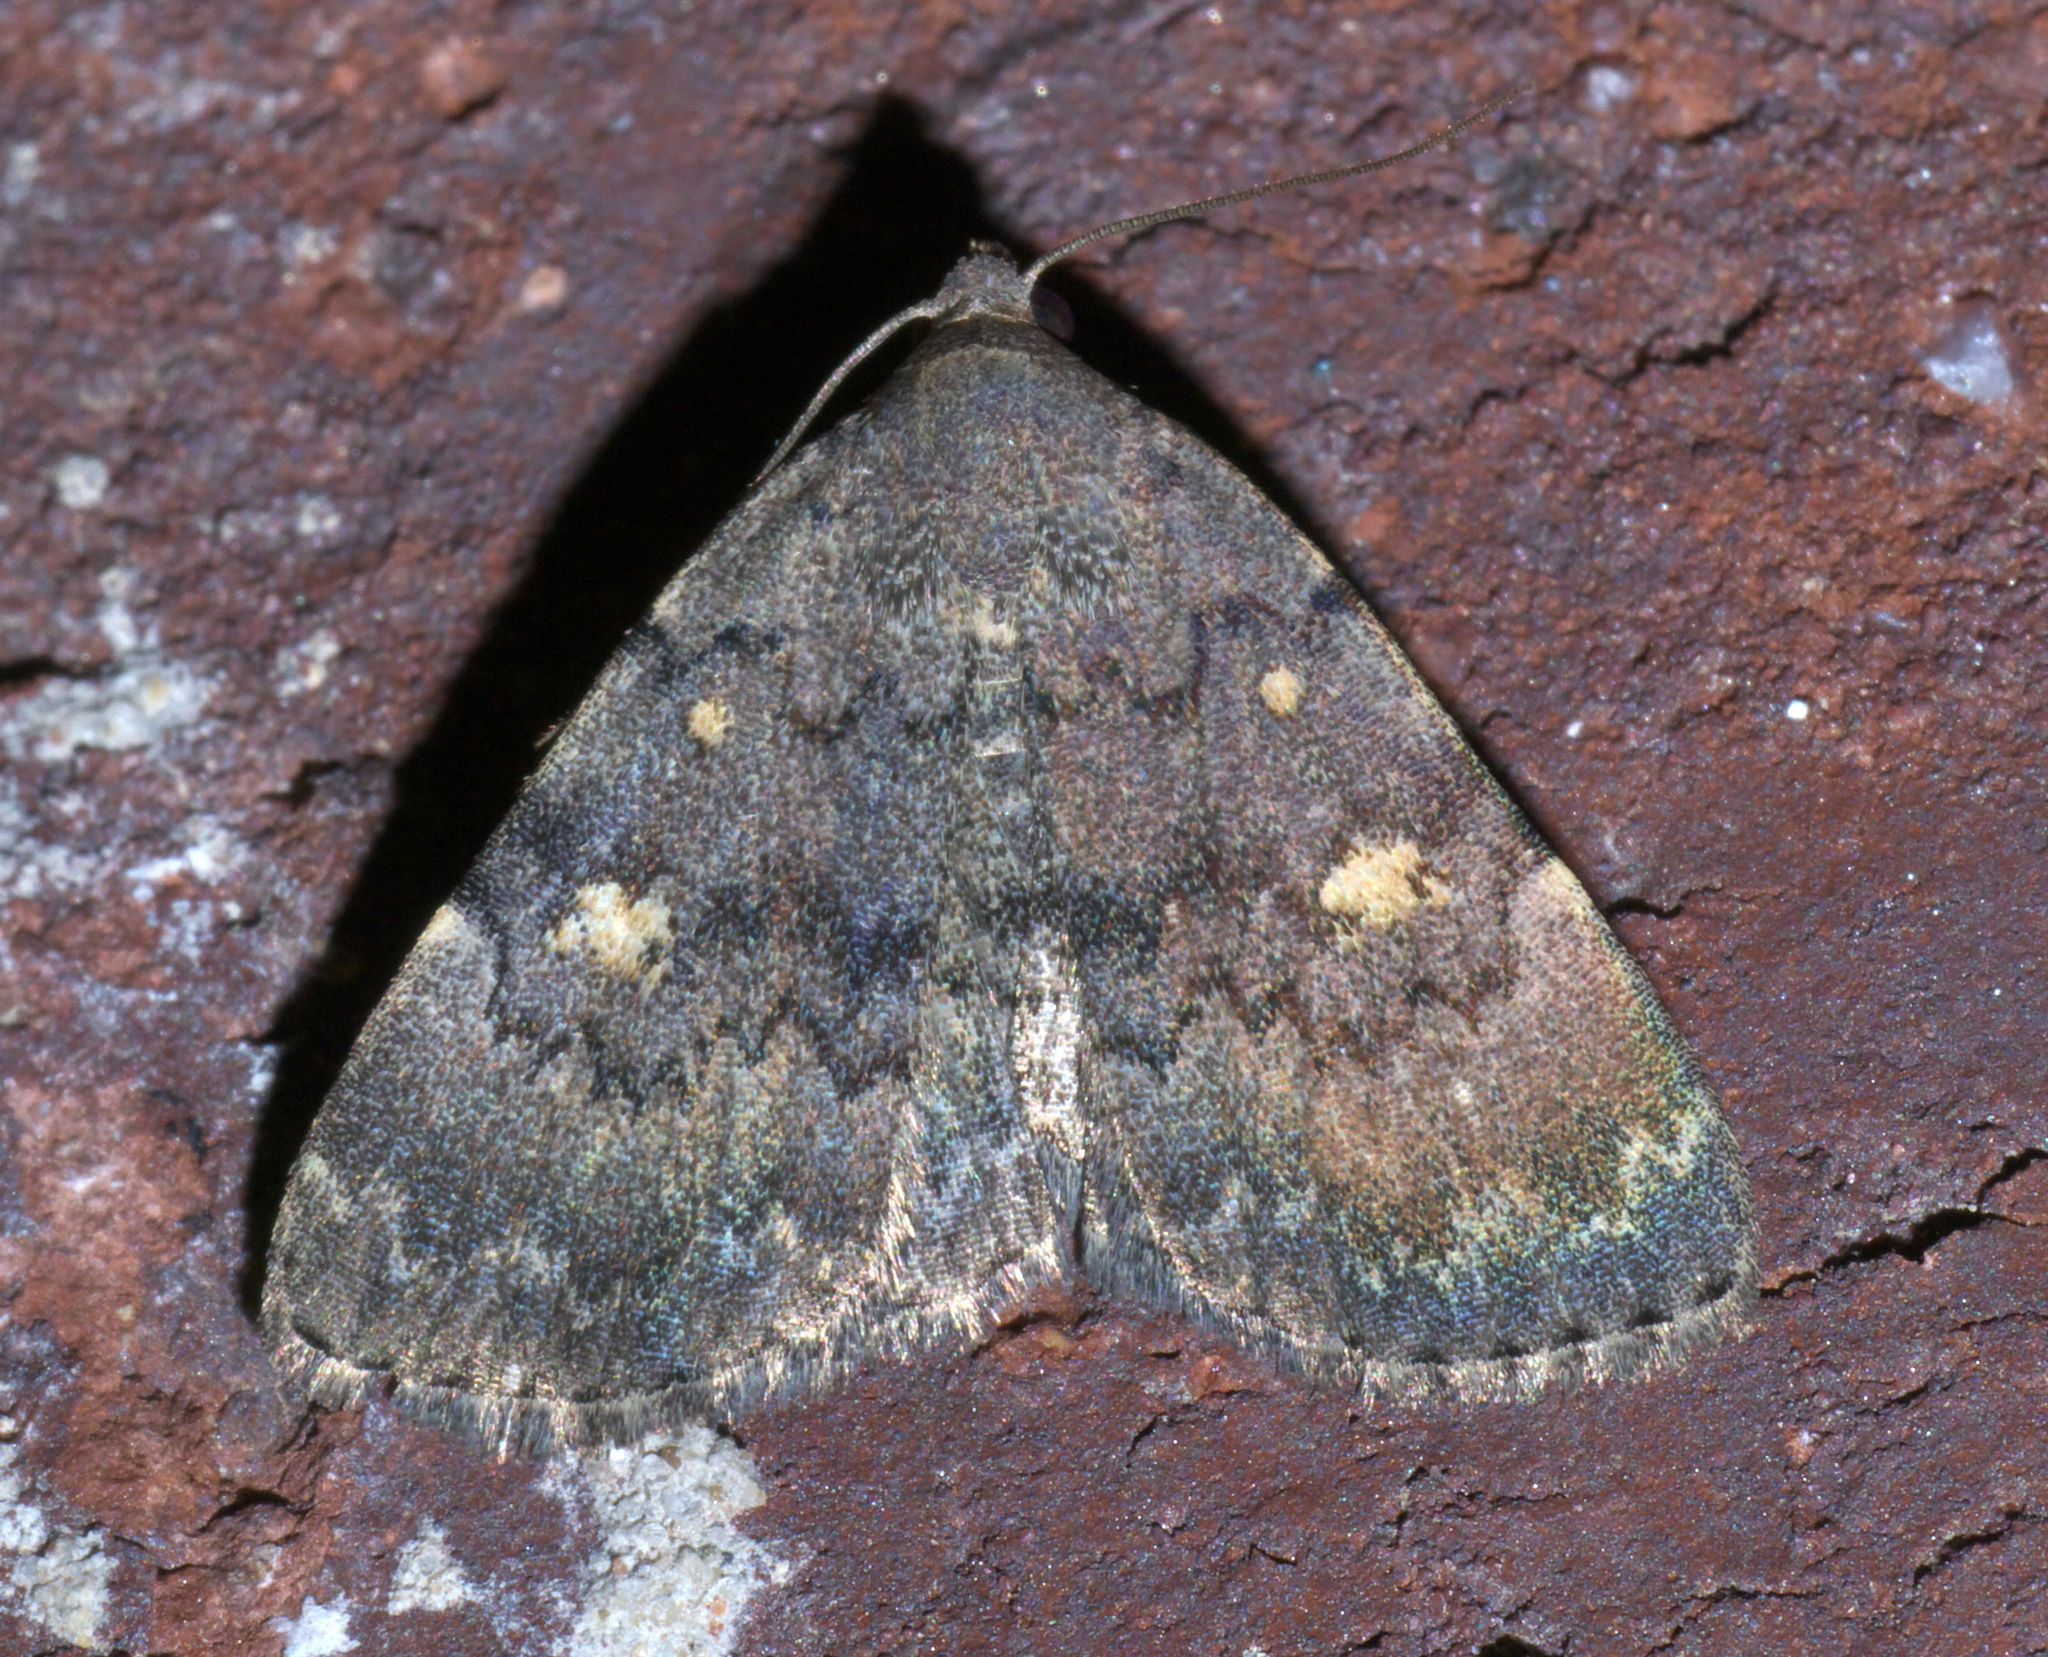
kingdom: Animalia
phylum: Arthropoda
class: Insecta
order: Lepidoptera
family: Erebidae
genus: Idia
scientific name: Idia aemula
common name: Common idia moth
